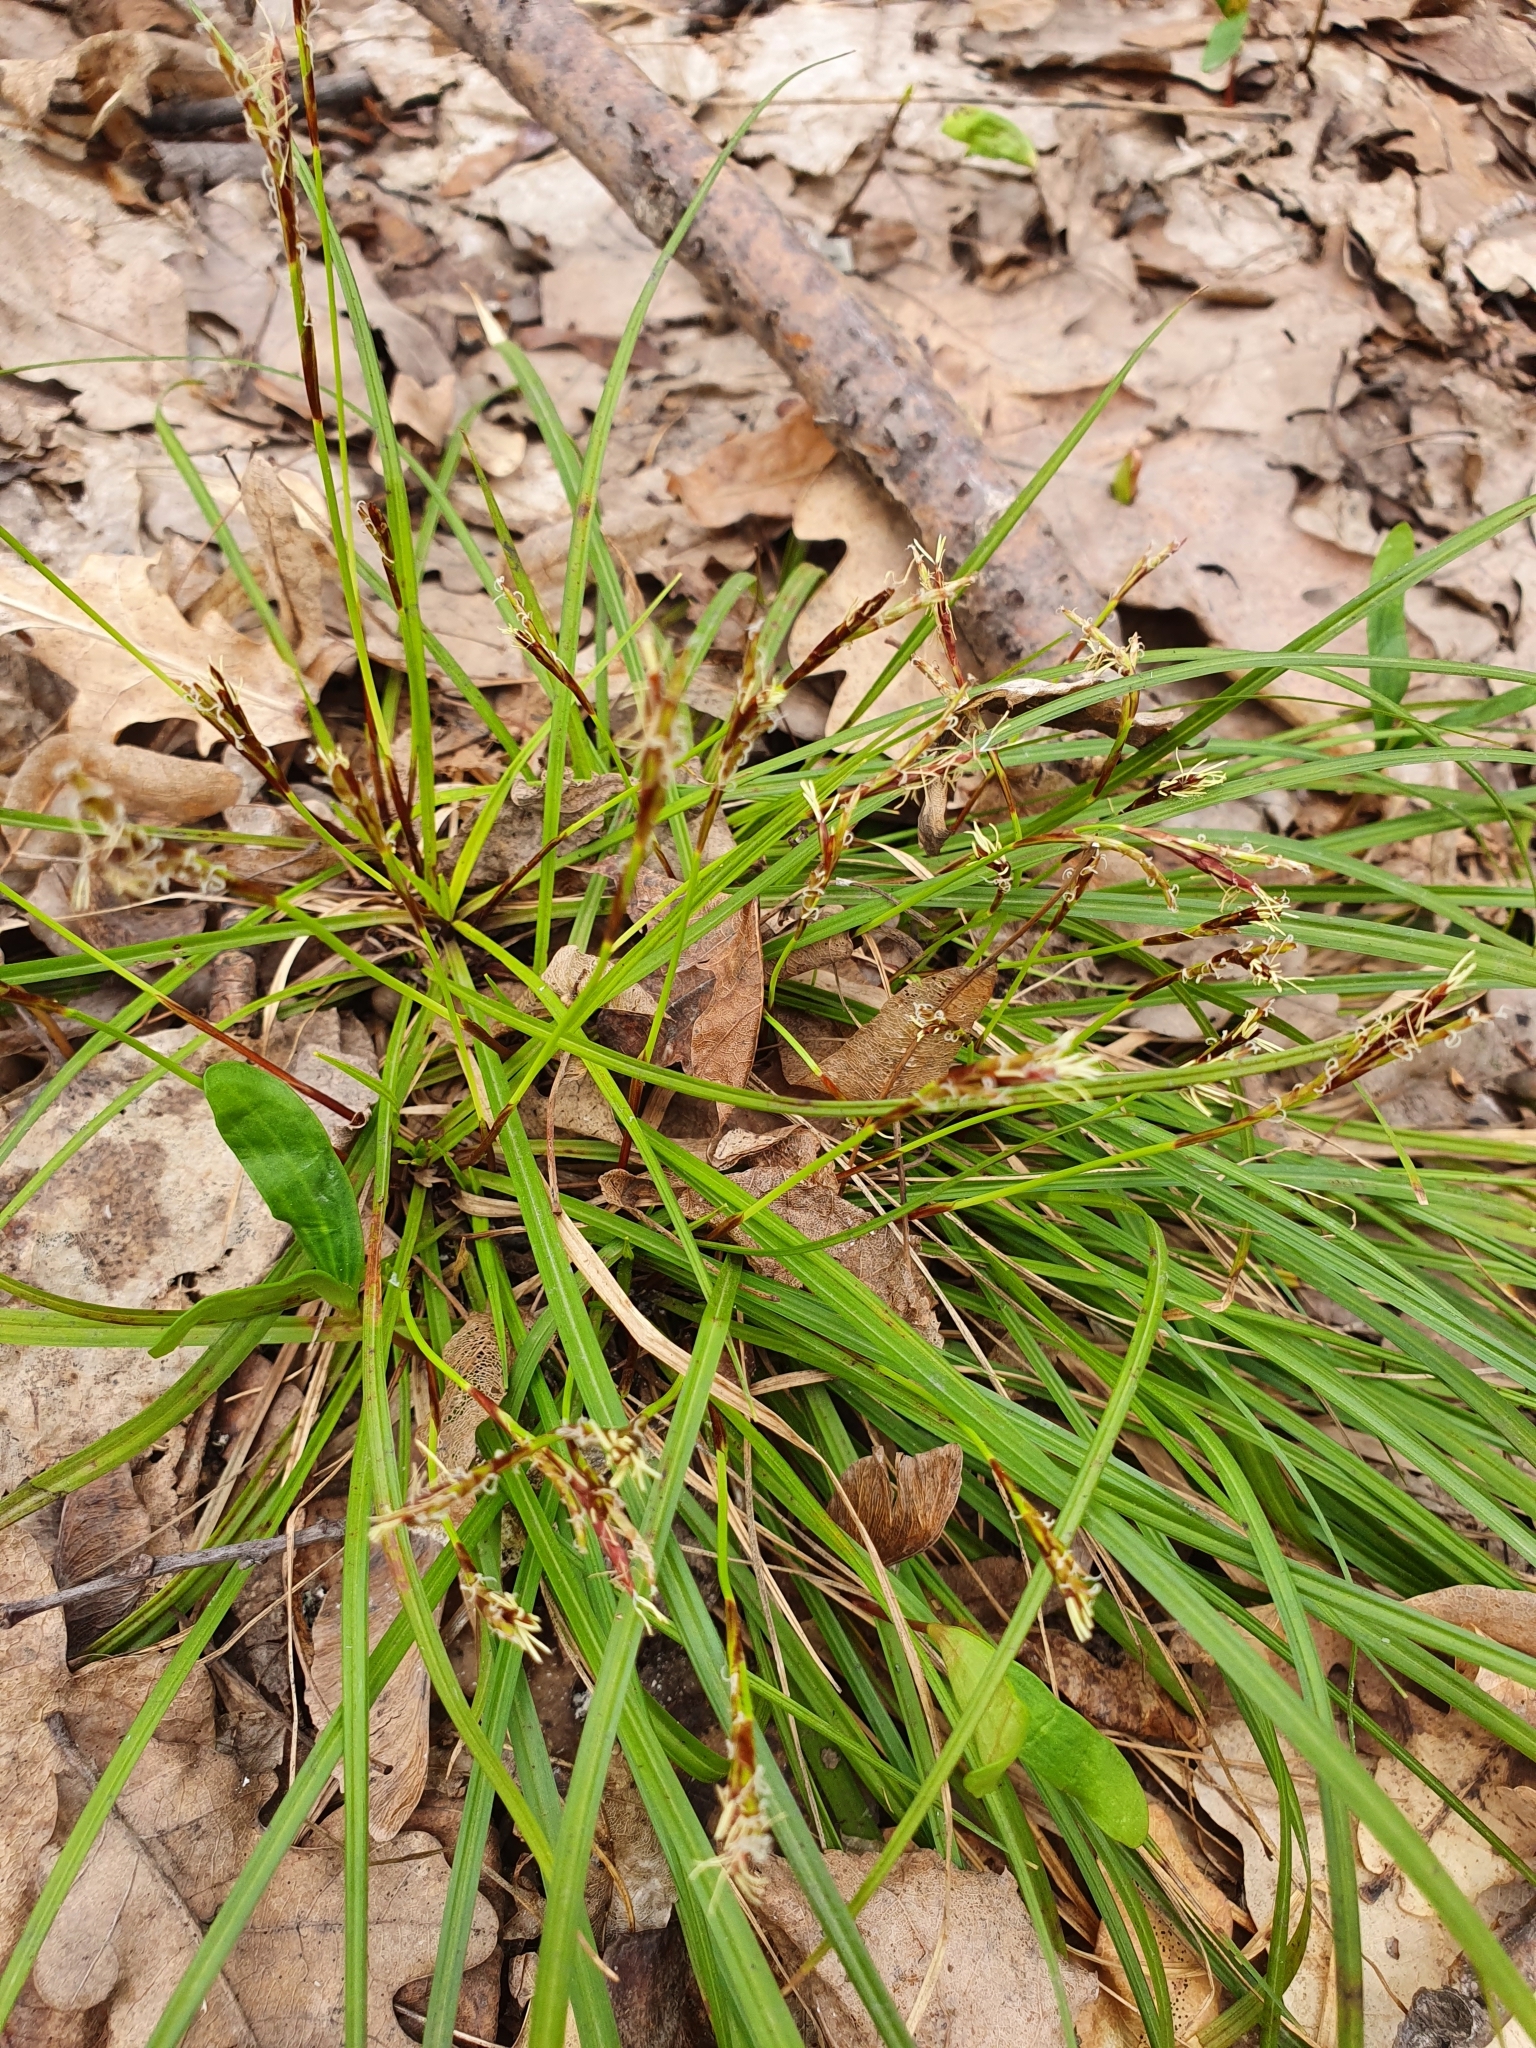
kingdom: Plantae
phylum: Tracheophyta
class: Liliopsida
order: Poales
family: Cyperaceae
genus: Carex
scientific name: Carex digitata
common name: Fingered sedge
